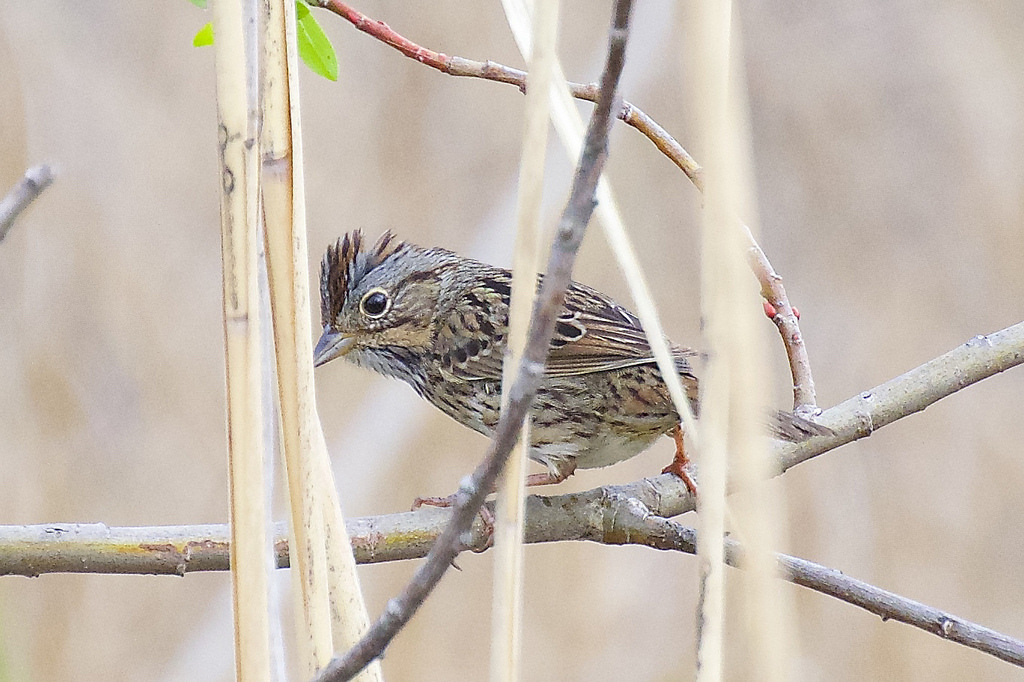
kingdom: Animalia
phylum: Chordata
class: Aves
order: Passeriformes
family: Passerellidae
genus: Melospiza
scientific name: Melospiza lincolnii
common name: Lincoln's sparrow
